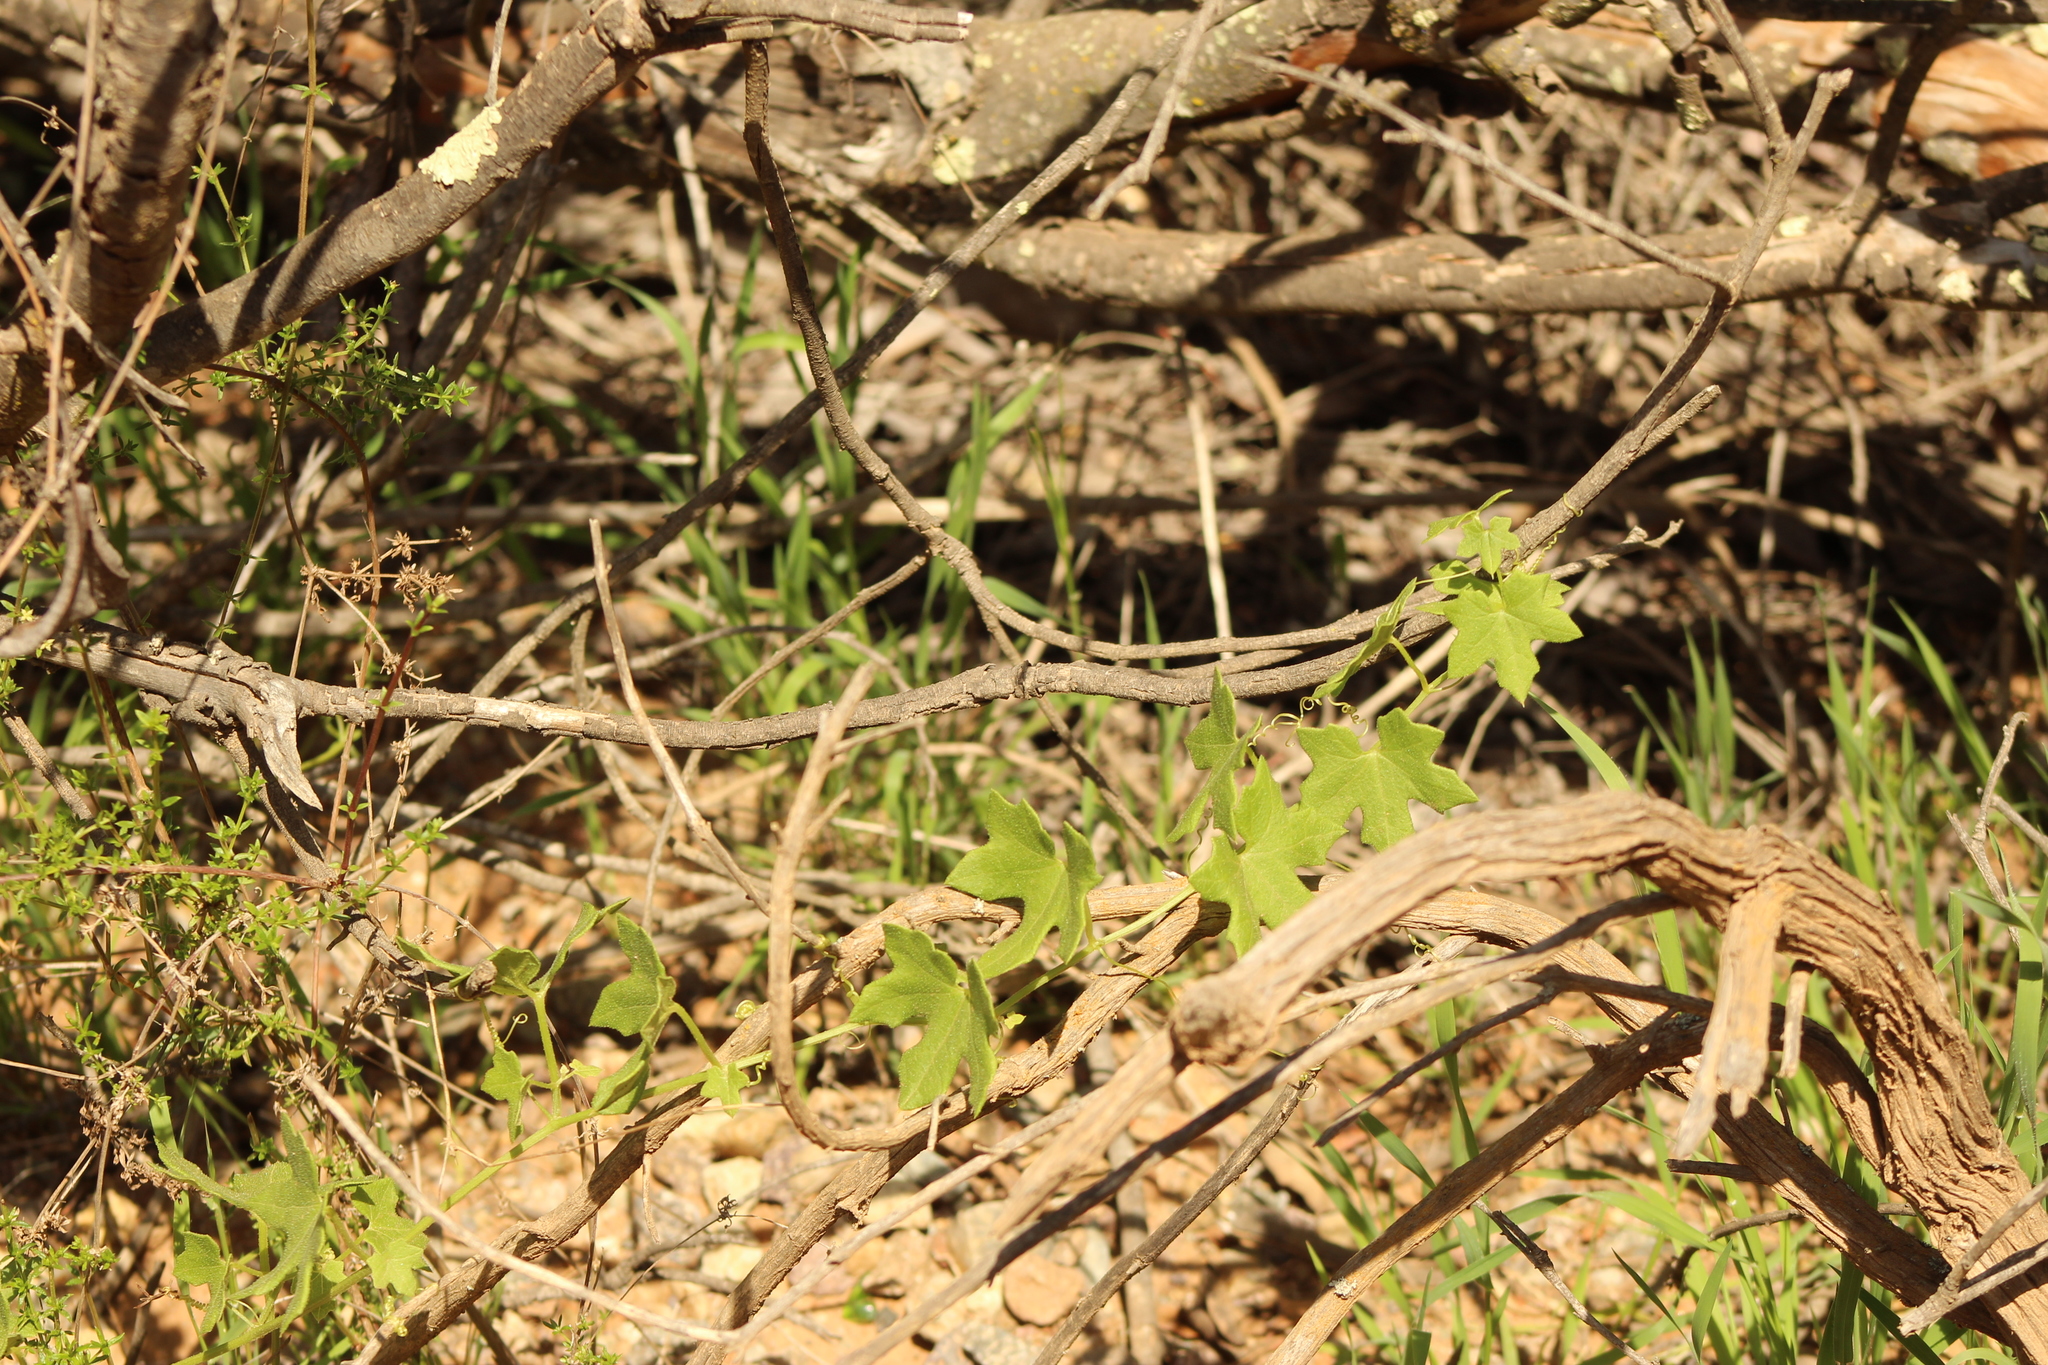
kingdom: Plantae
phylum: Tracheophyta
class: Magnoliopsida
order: Cucurbitales
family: Cucurbitaceae
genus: Marah
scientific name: Marah macrocarpa
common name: Cucamonga manroot
